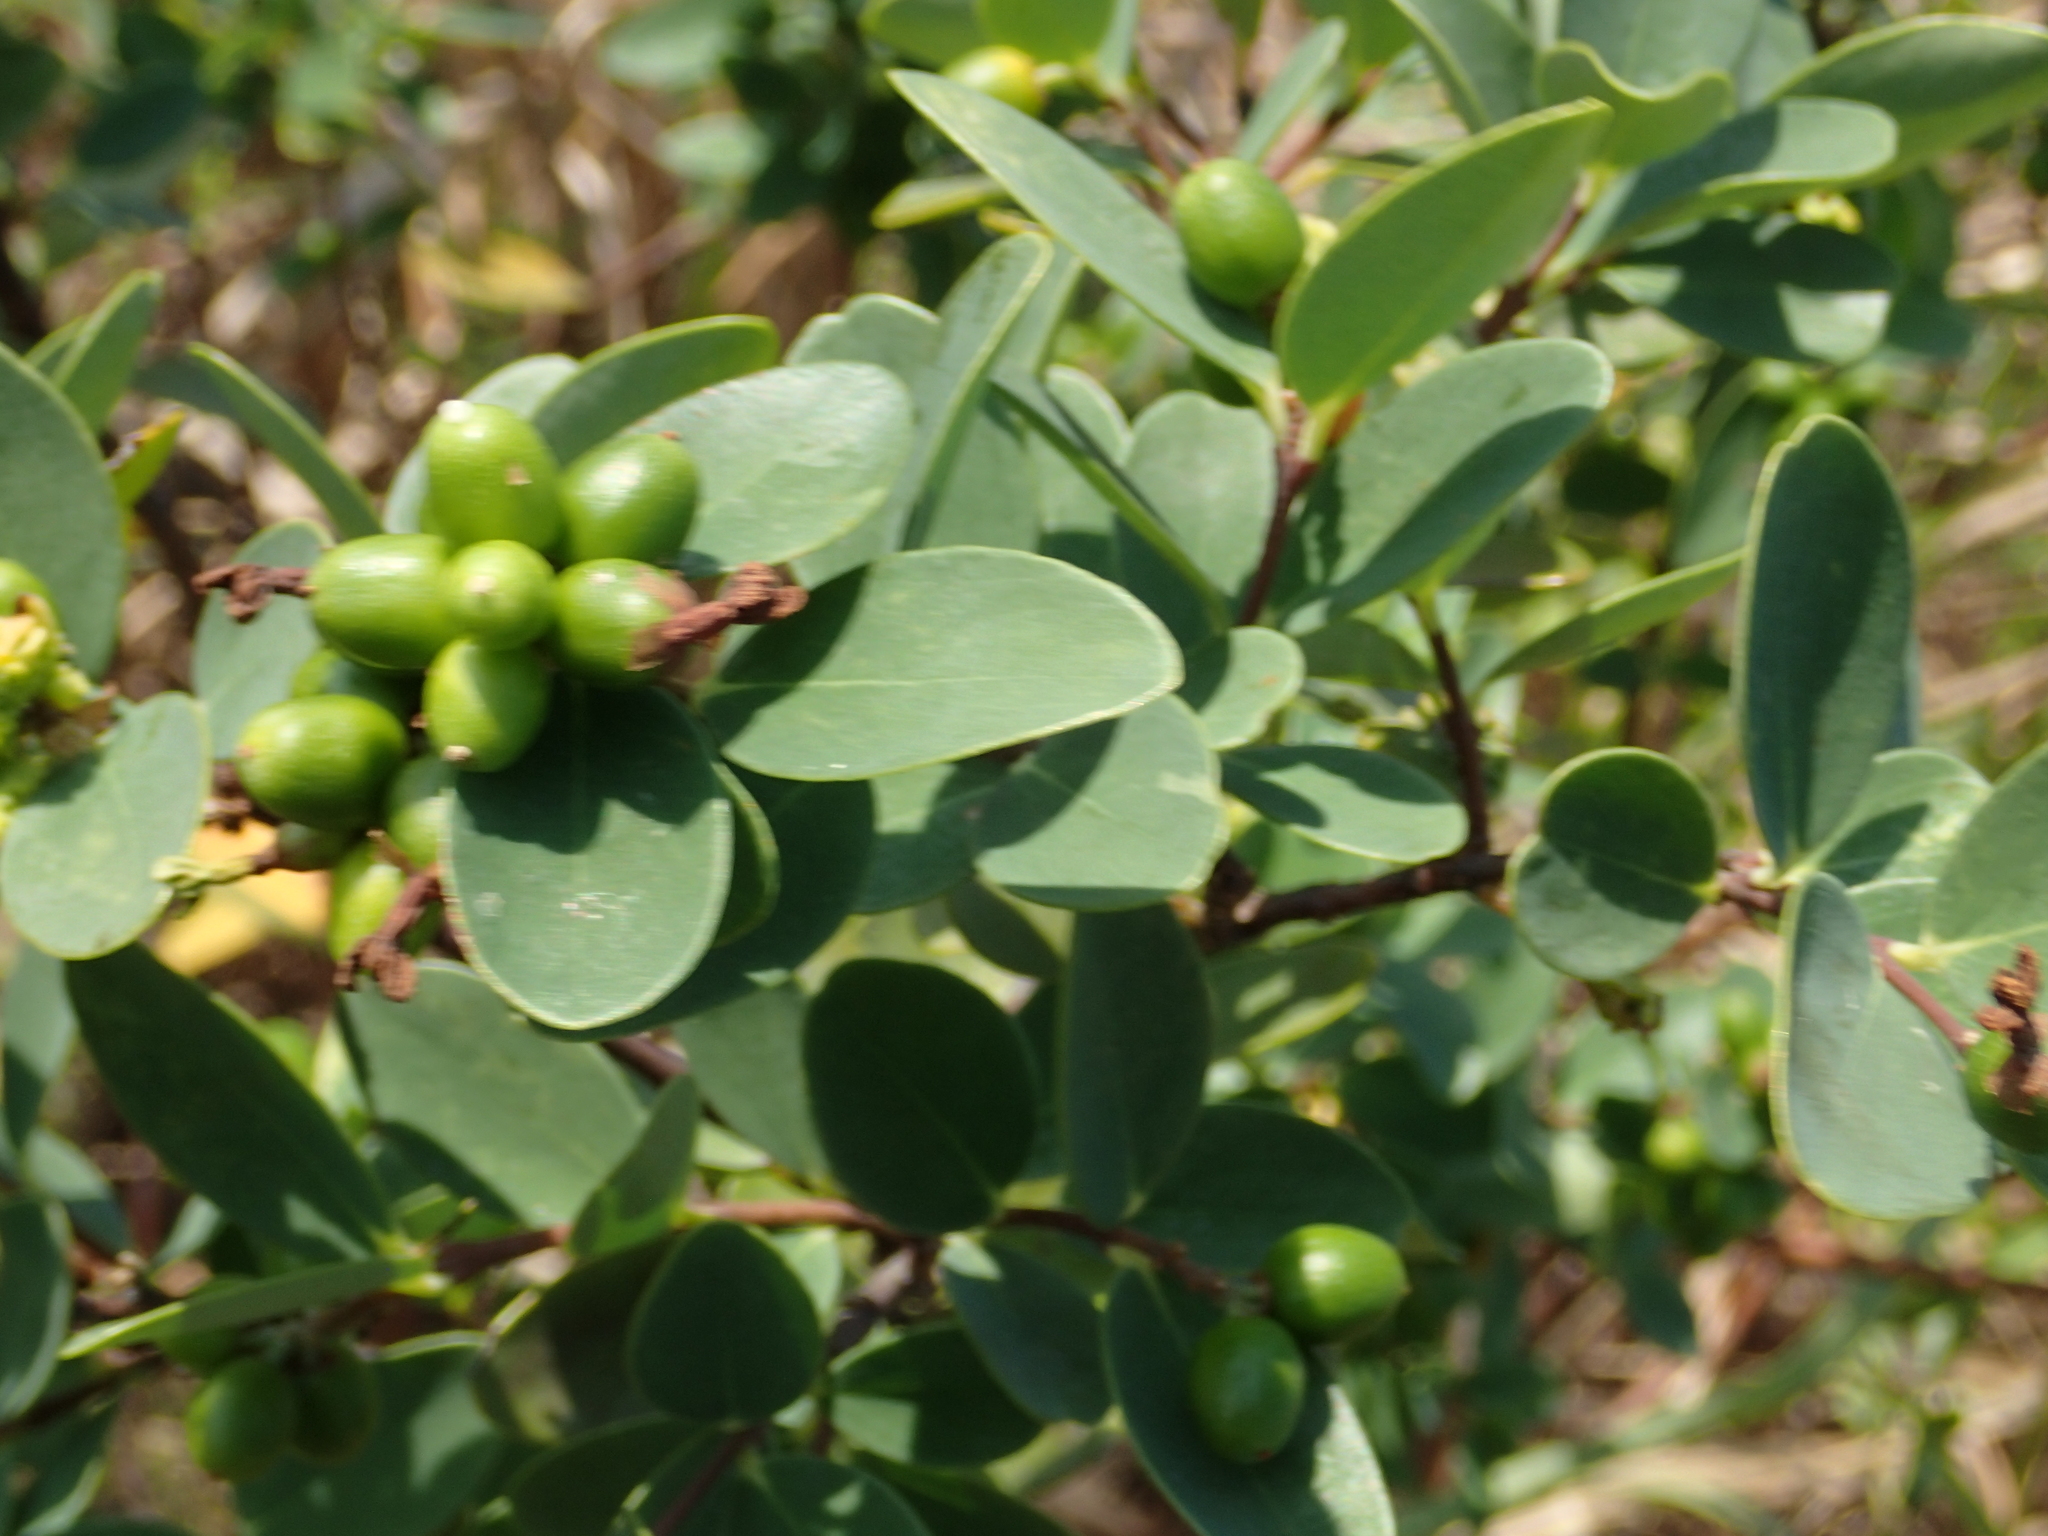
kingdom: Plantae
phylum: Tracheophyta
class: Magnoliopsida
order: Malvales
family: Thymelaeaceae
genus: Wikstroemia
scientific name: Wikstroemia indica
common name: Tiebush
